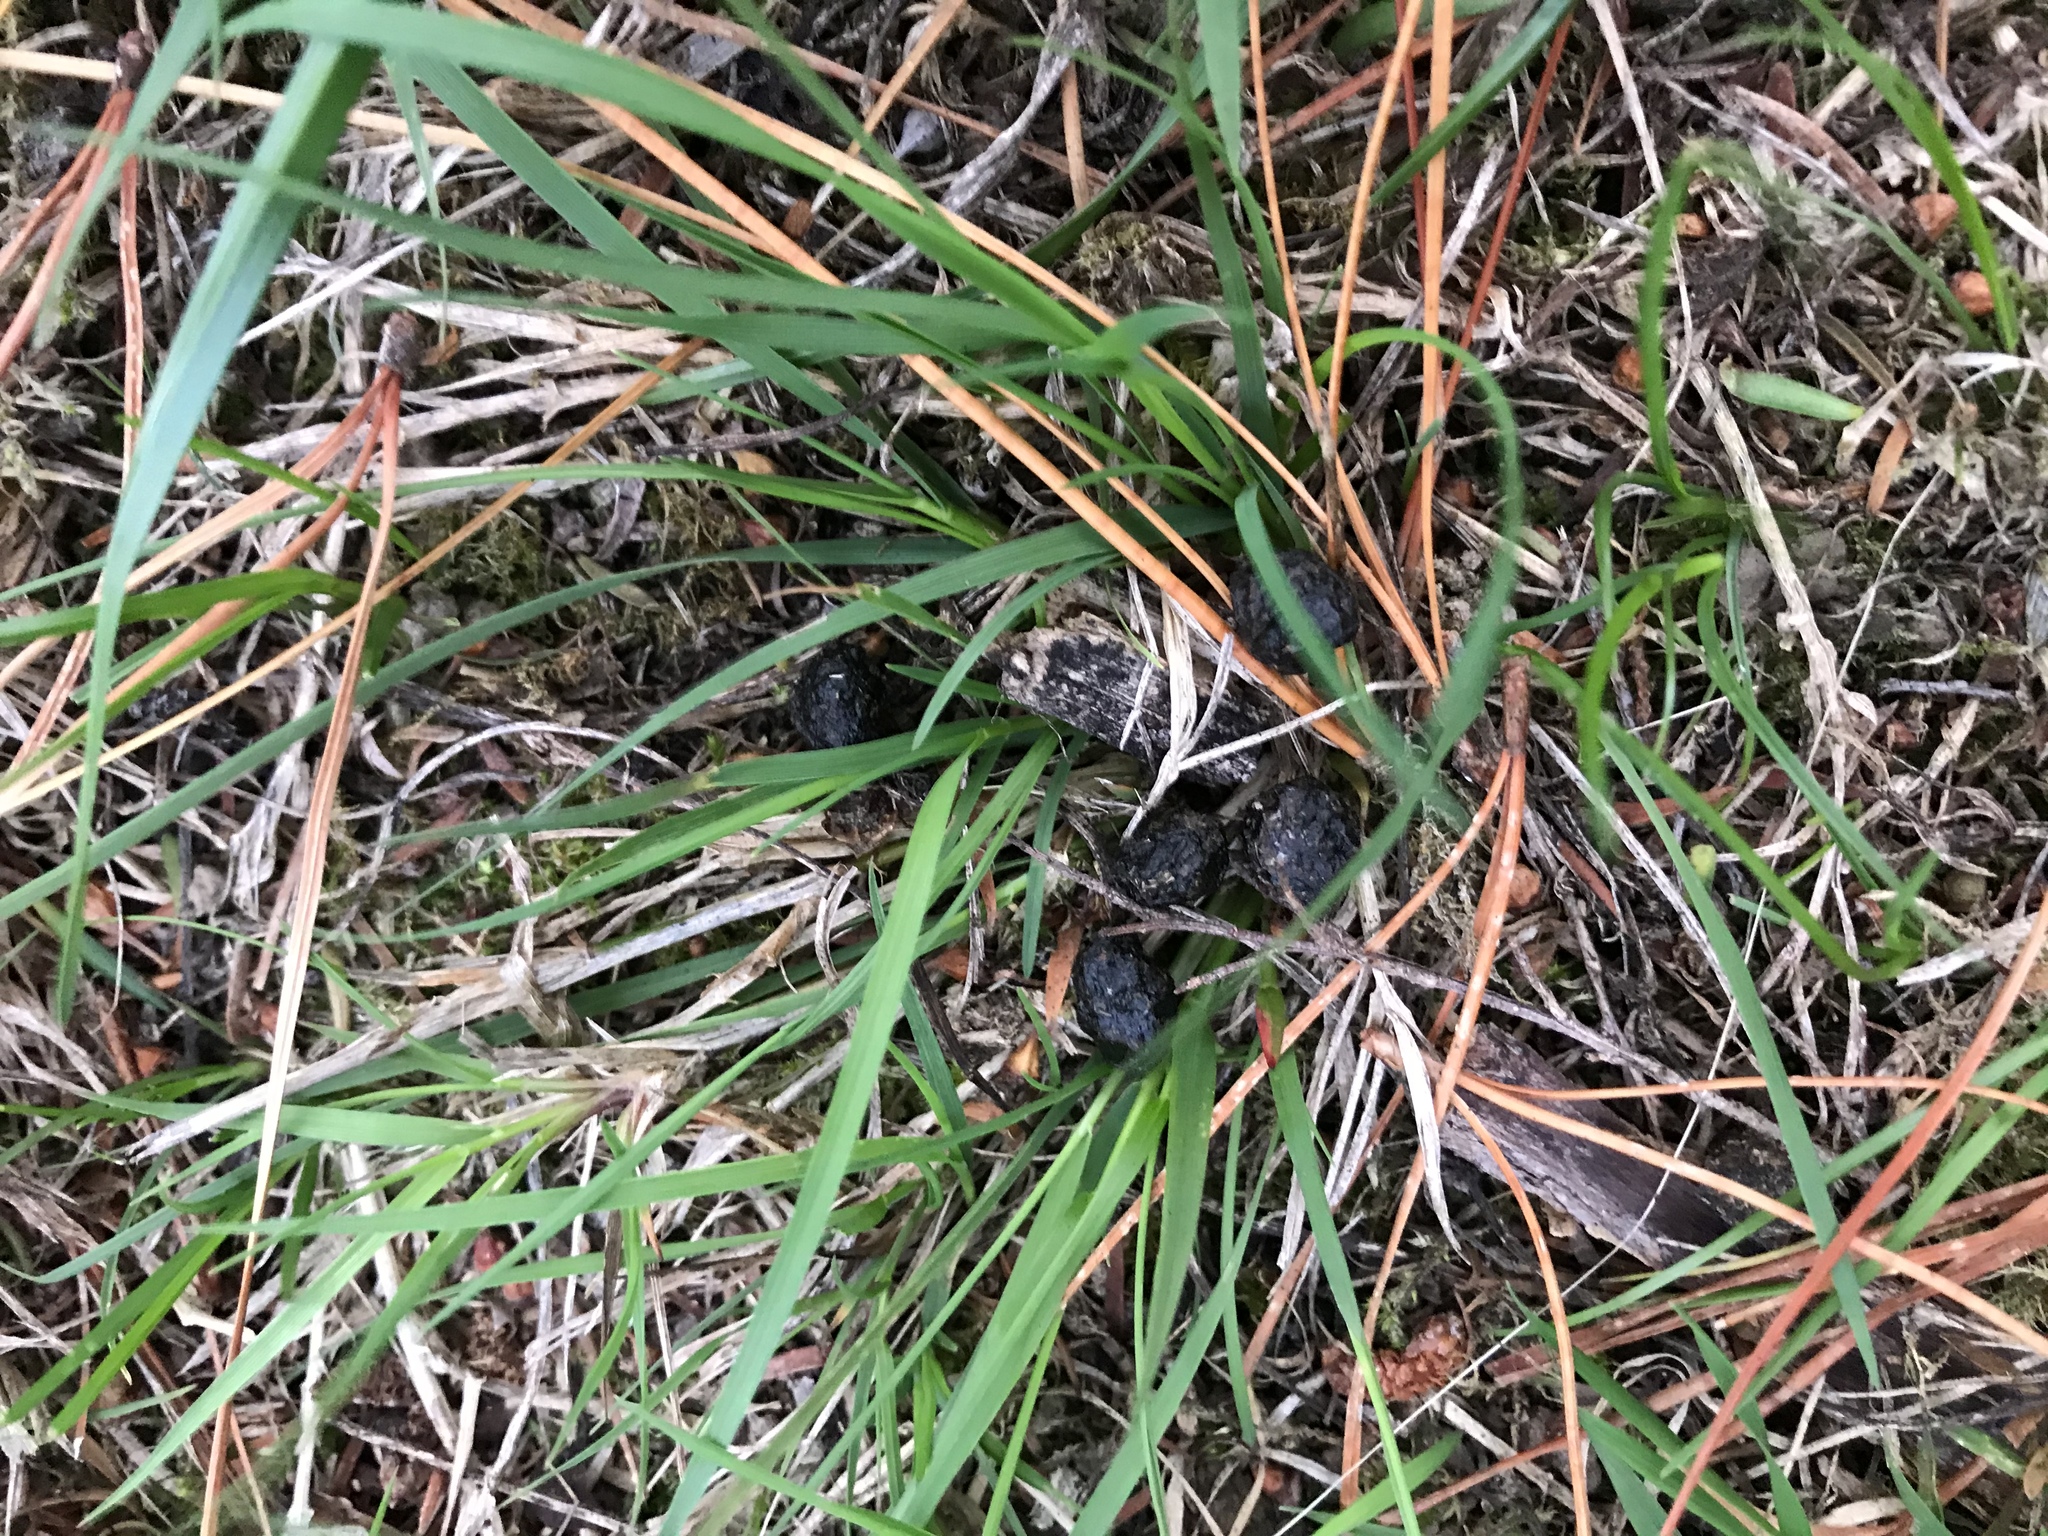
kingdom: Animalia
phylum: Chordata
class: Mammalia
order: Lagomorpha
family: Leporidae
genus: Oryctolagus
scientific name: Oryctolagus cuniculus
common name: European rabbit
